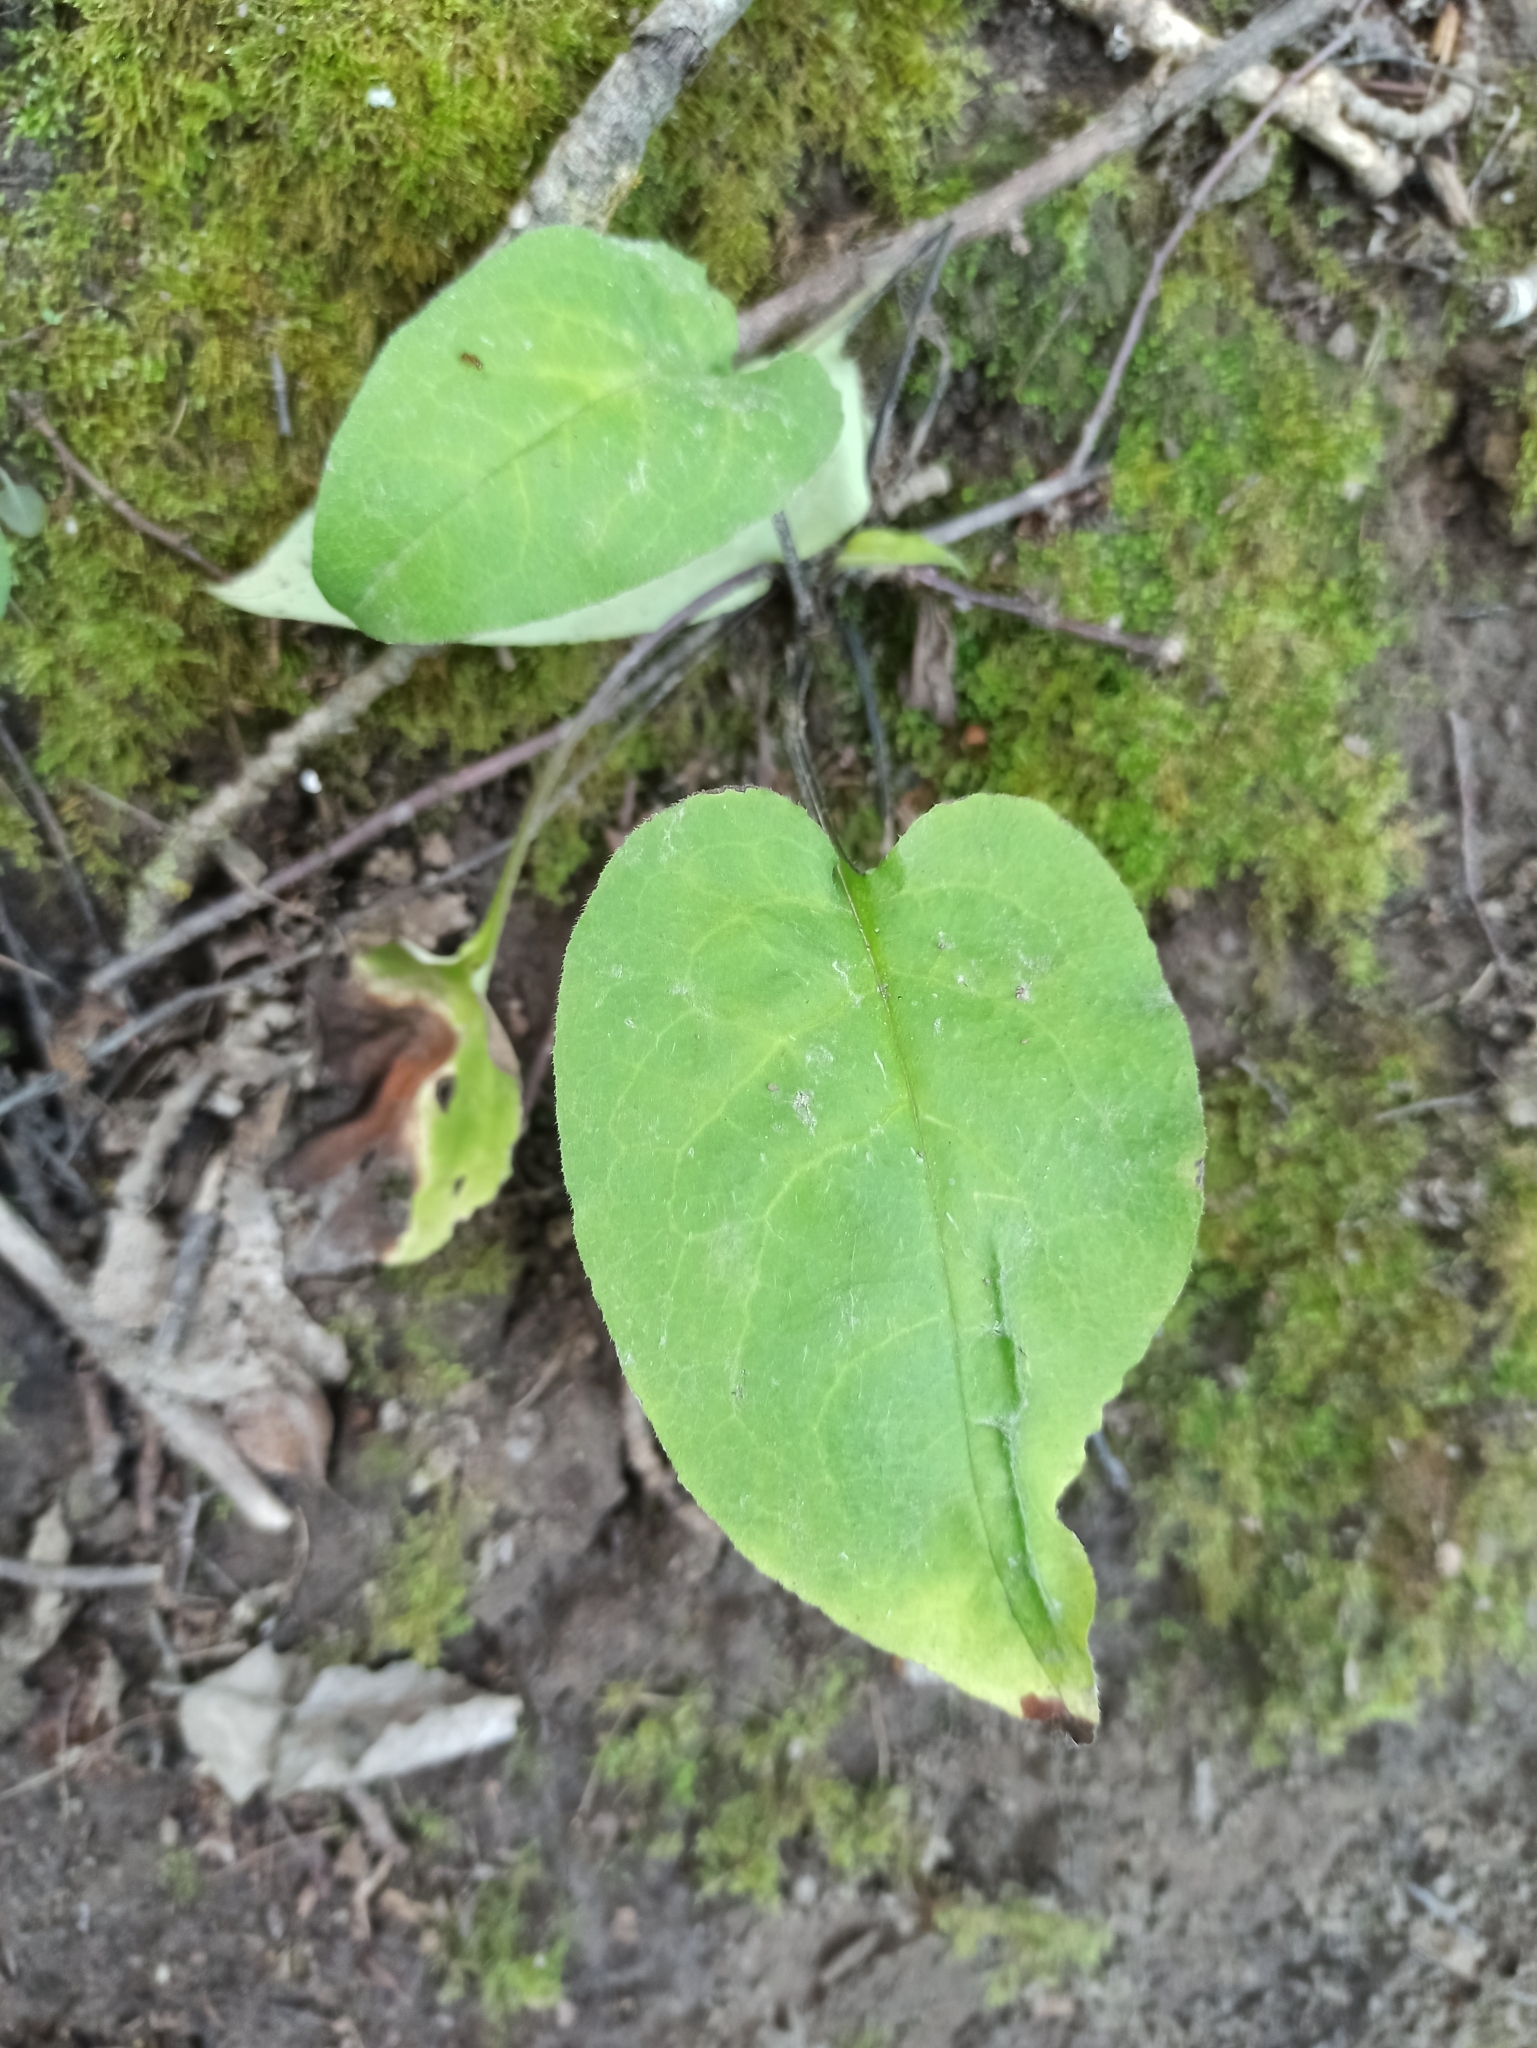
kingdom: Plantae
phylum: Tracheophyta
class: Magnoliopsida
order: Boraginales
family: Boraginaceae
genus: Pulmonaria
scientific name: Pulmonaria obscura
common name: Suffolk lungwort
